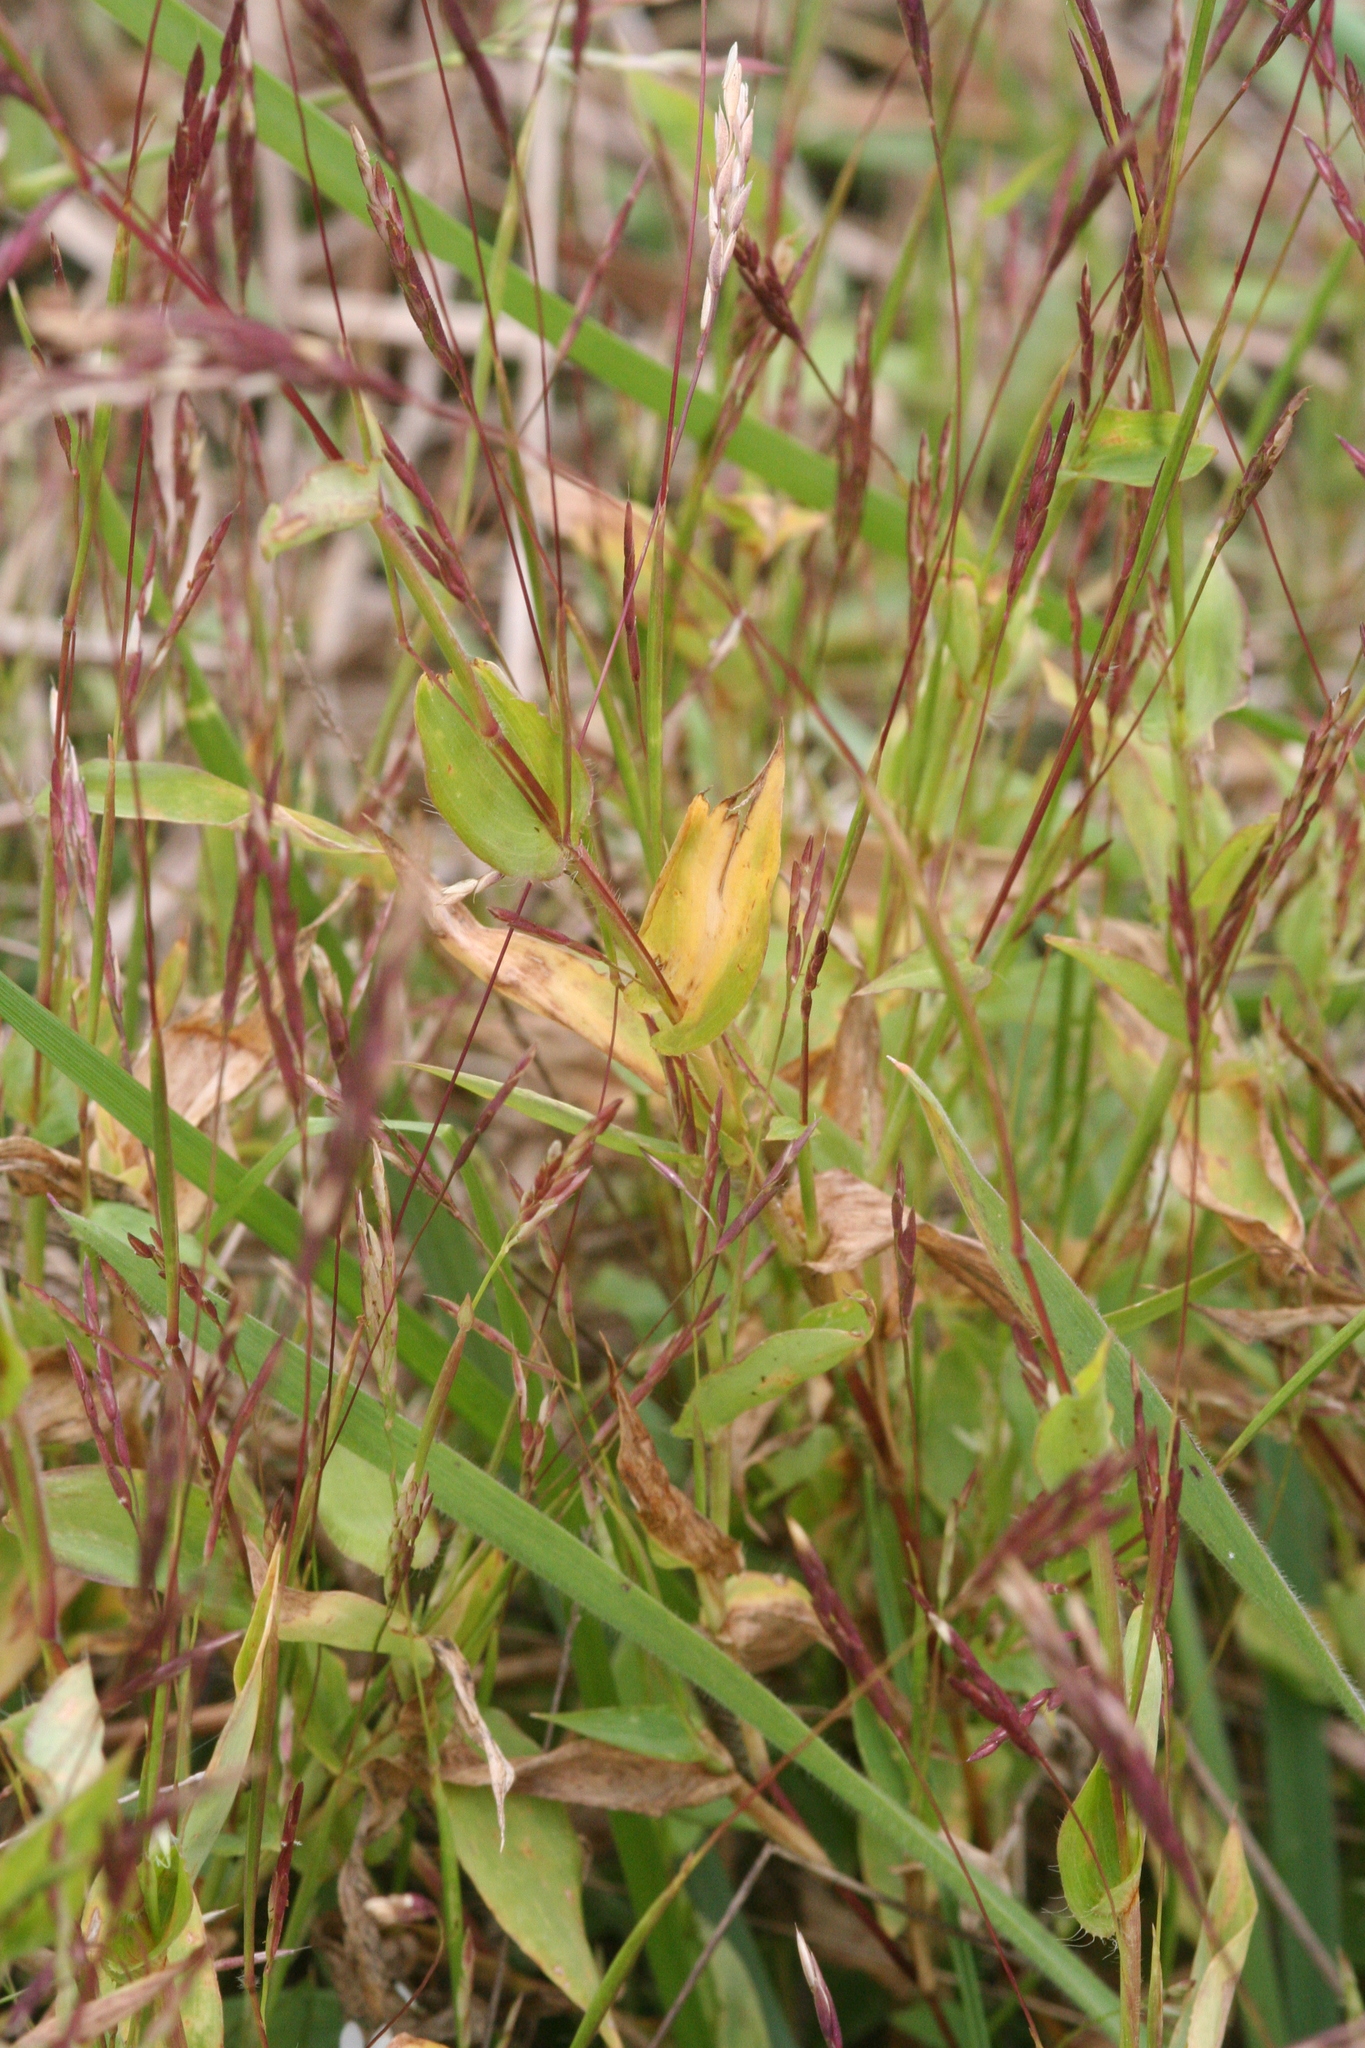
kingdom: Plantae
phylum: Tracheophyta
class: Liliopsida
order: Poales
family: Poaceae
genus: Arthraxon
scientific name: Arthraxon hispidus
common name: Small carpgrass
